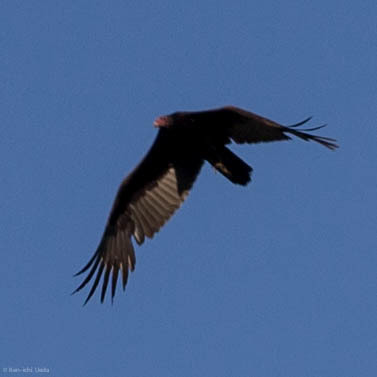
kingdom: Animalia
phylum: Chordata
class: Aves
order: Accipitriformes
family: Cathartidae
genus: Cathartes
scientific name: Cathartes aura
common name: Turkey vulture
